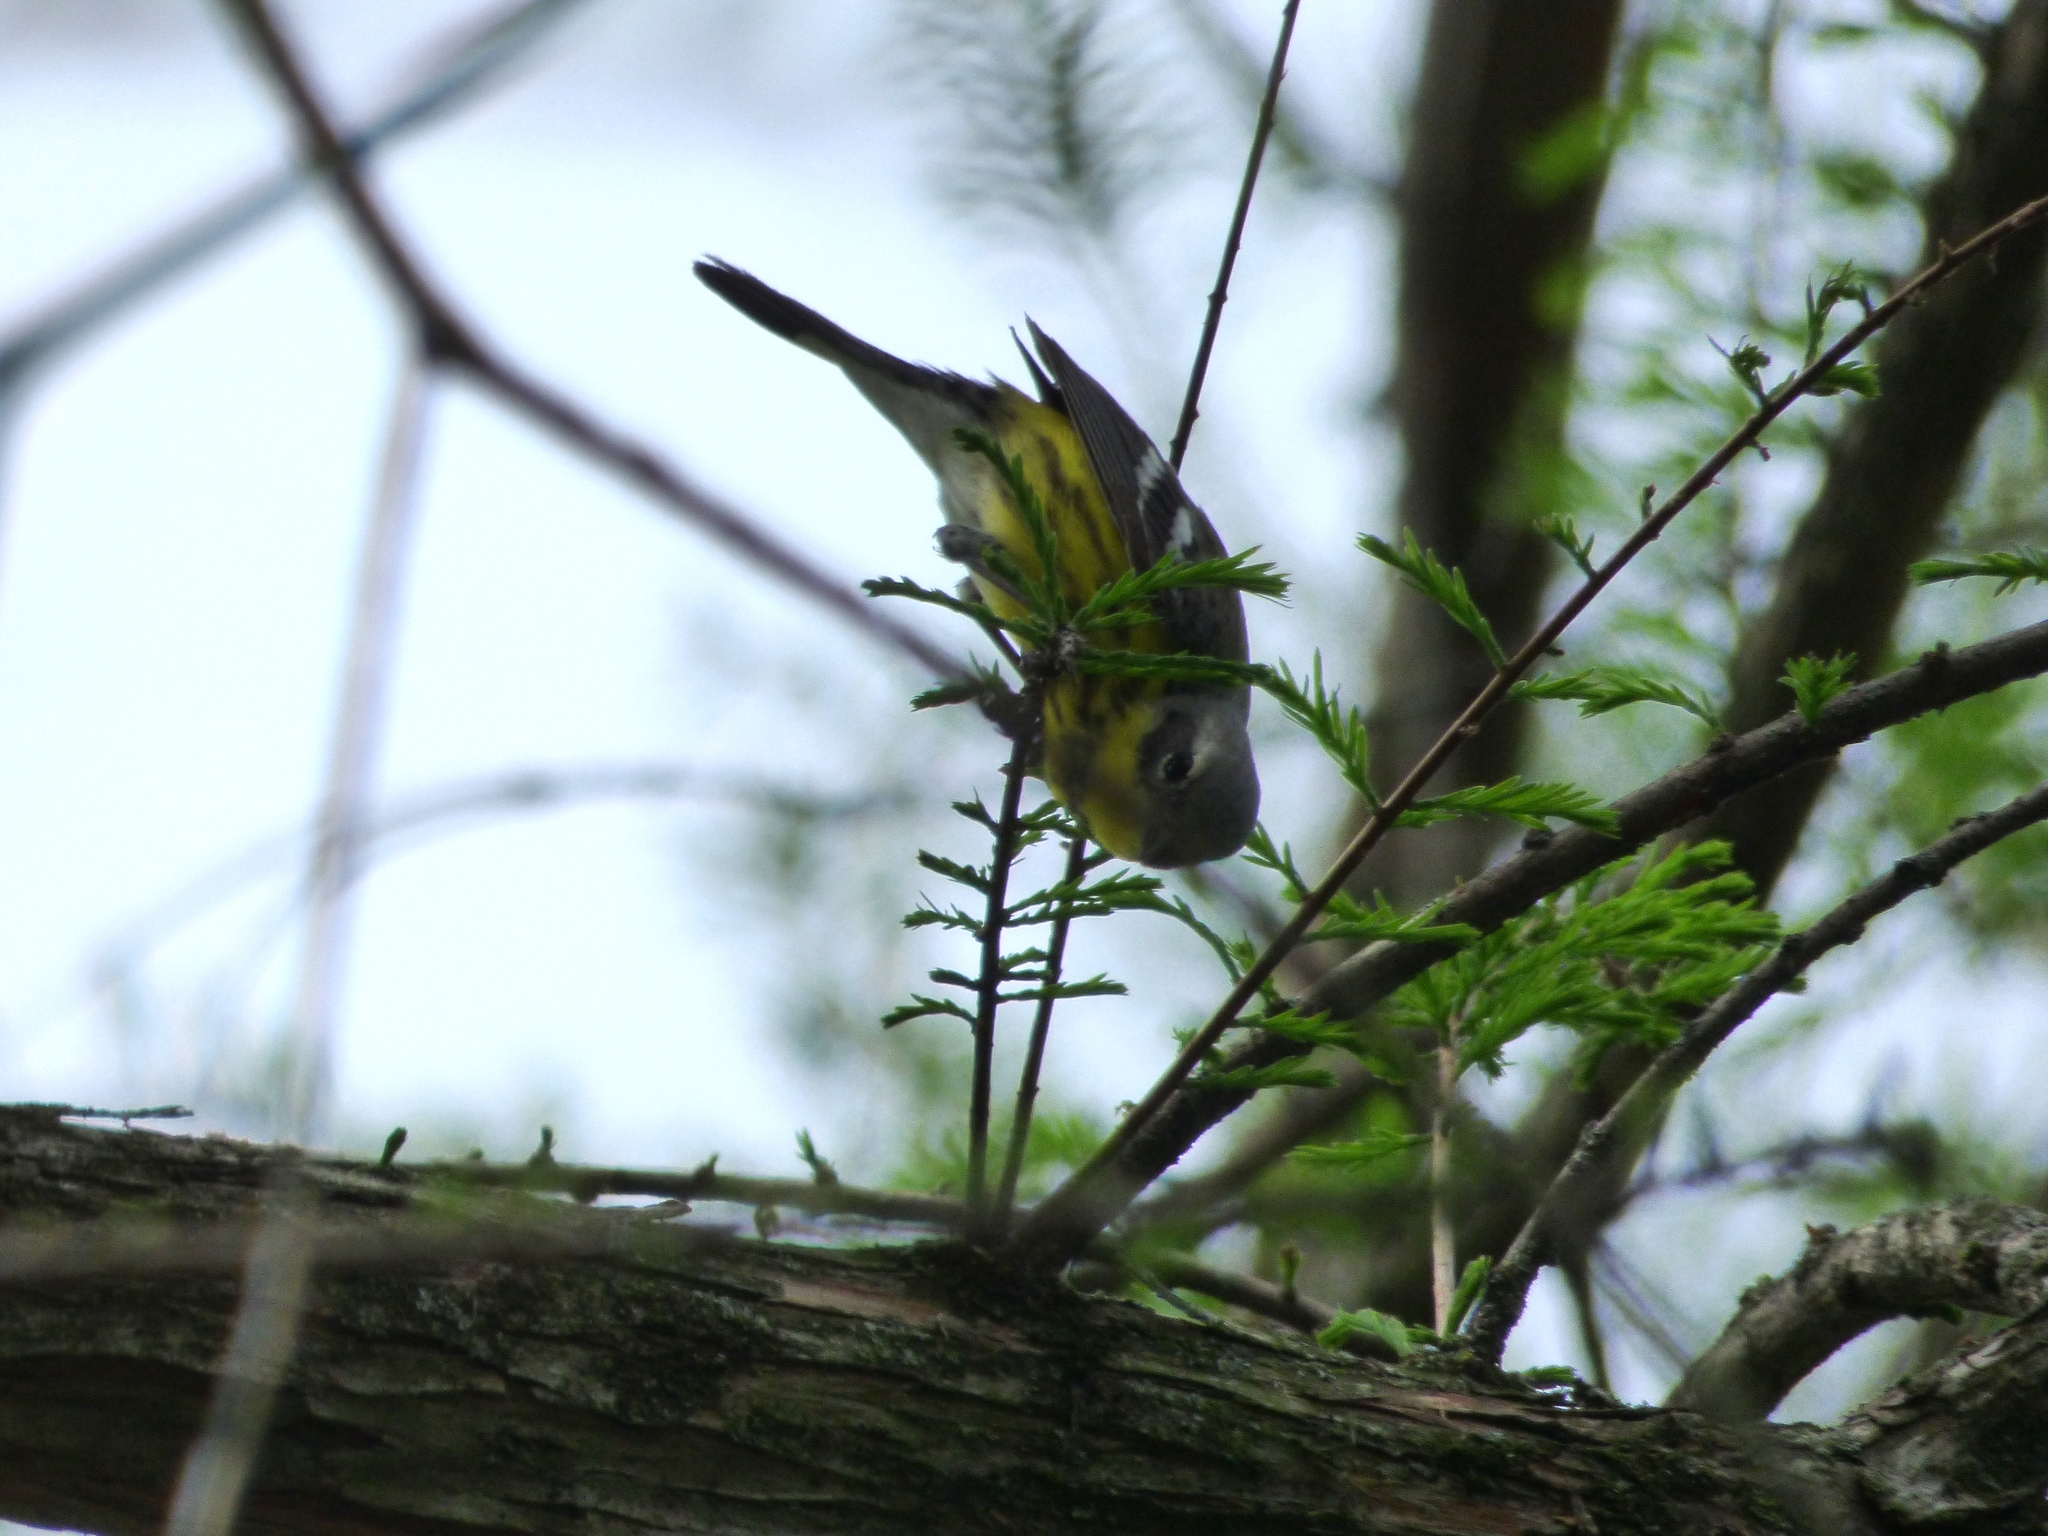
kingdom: Animalia
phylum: Chordata
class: Aves
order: Passeriformes
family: Parulidae
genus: Setophaga
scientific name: Setophaga magnolia
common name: Magnolia warbler
